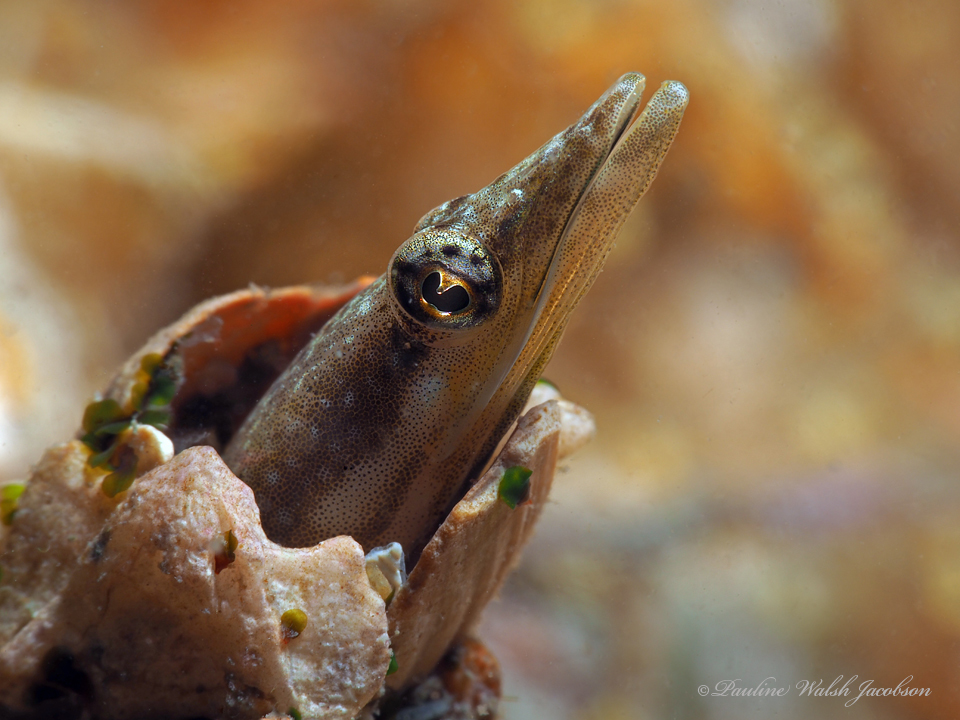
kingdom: Animalia
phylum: Chordata
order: Perciformes
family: Chaenopsidae
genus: Chaenopsis
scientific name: Chaenopsis ocellata
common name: Bluethroat pikeblenny
